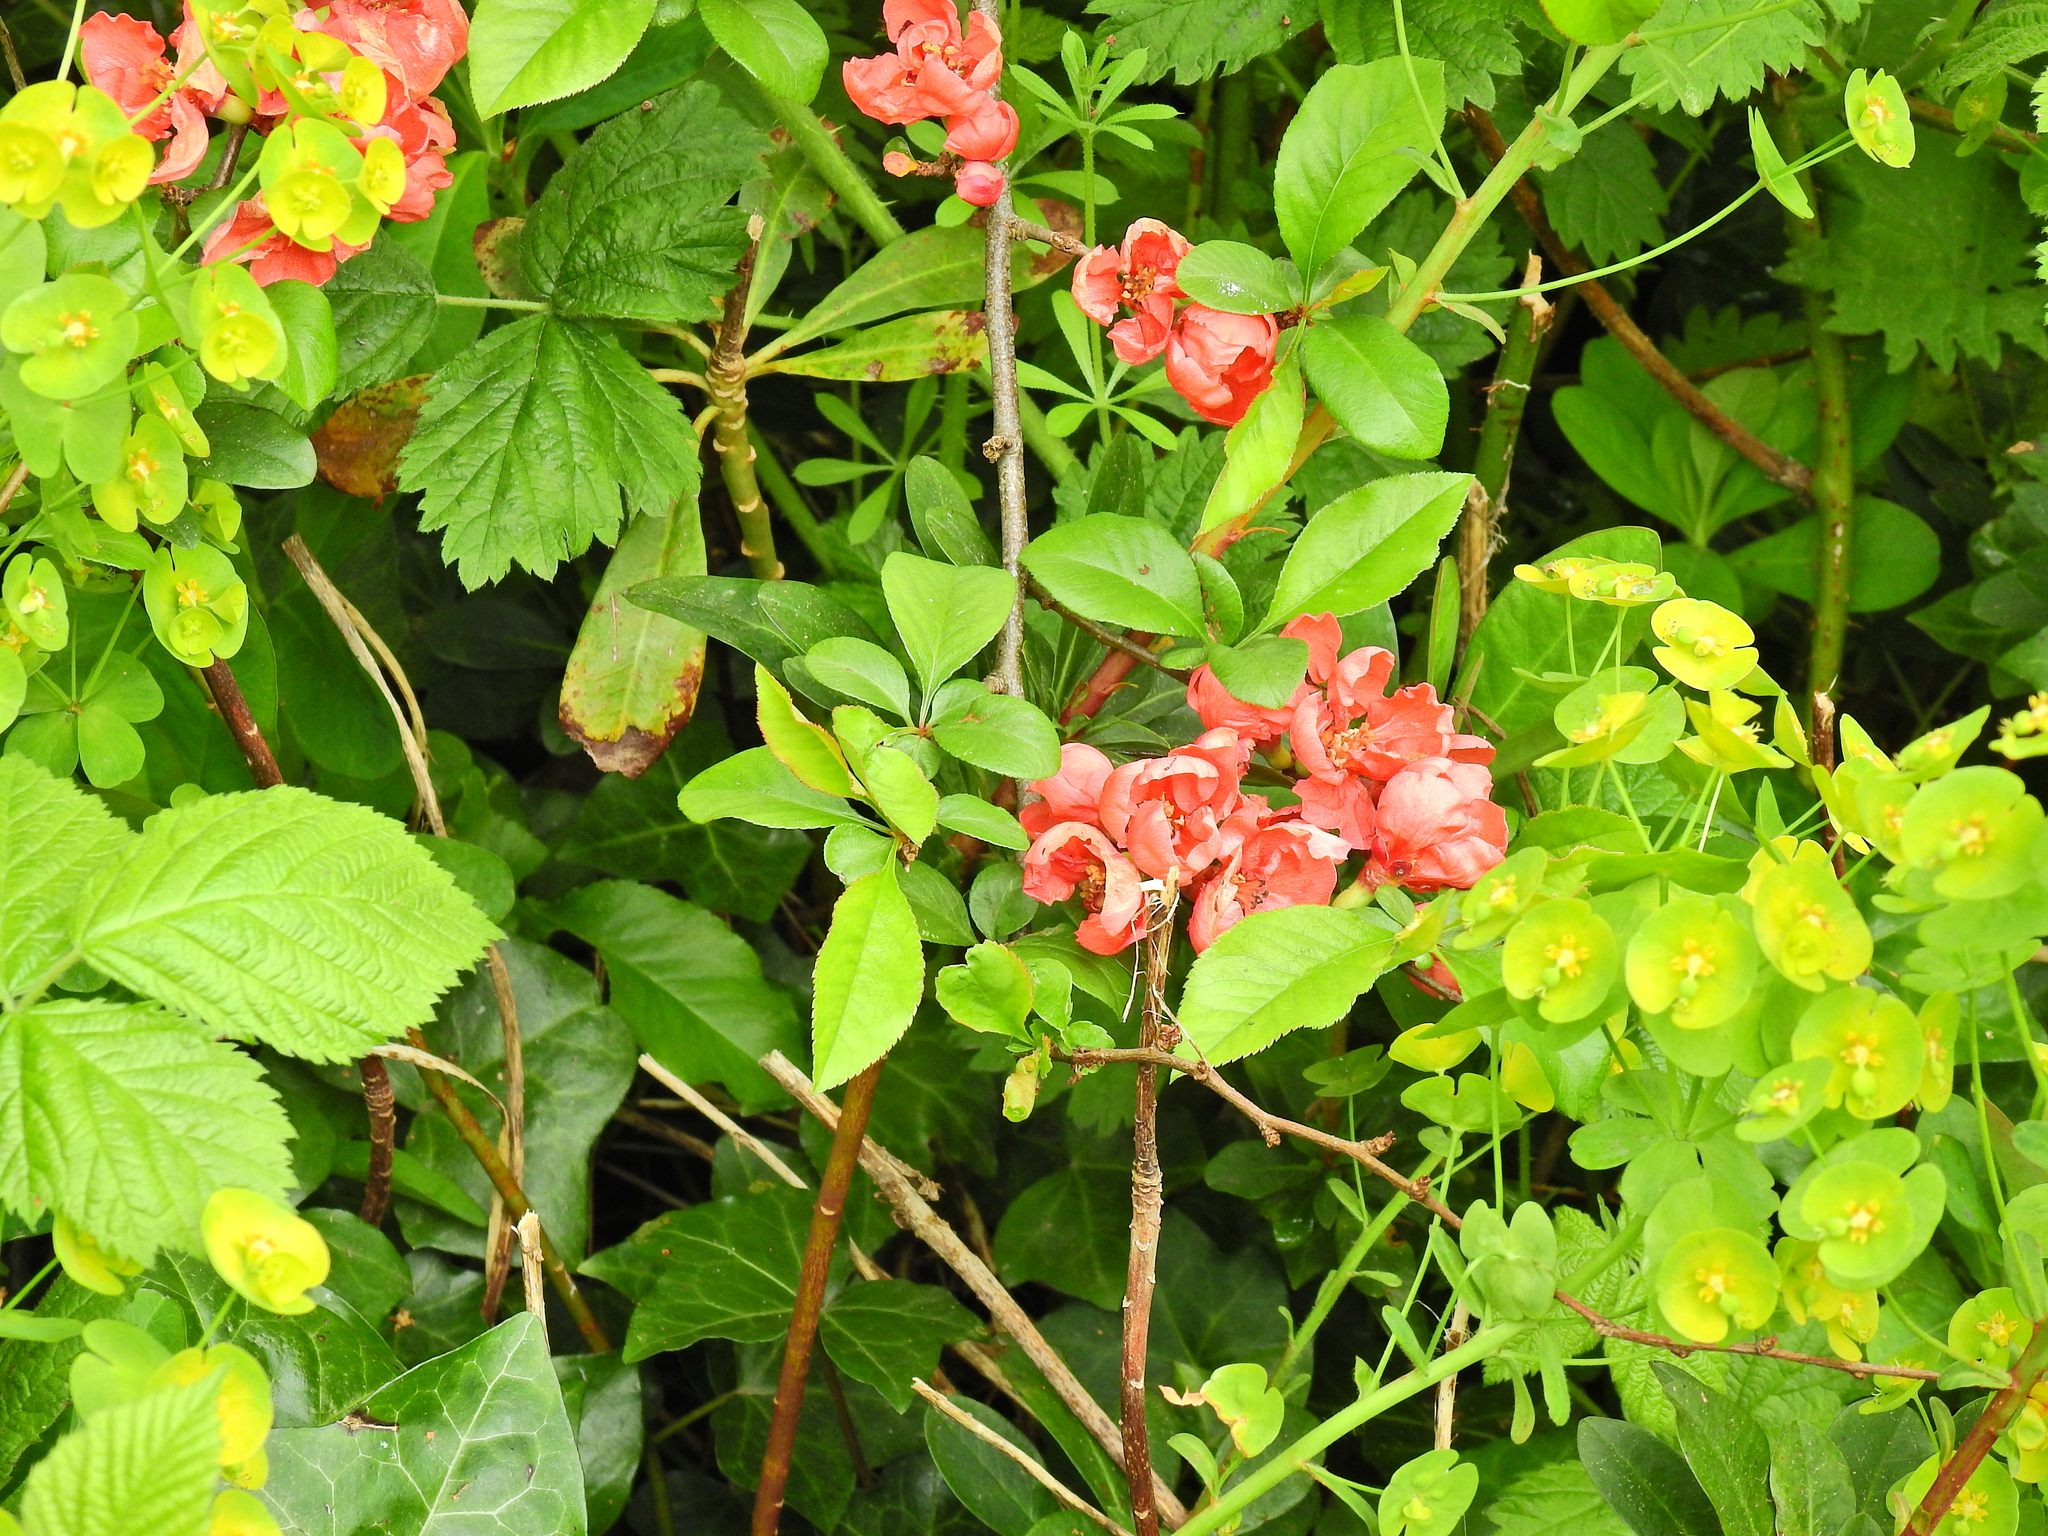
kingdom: Plantae
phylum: Tracheophyta
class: Magnoliopsida
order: Rosales
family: Rosaceae
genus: Chaenomeles
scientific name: Chaenomeles speciosa
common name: Japanese quince
